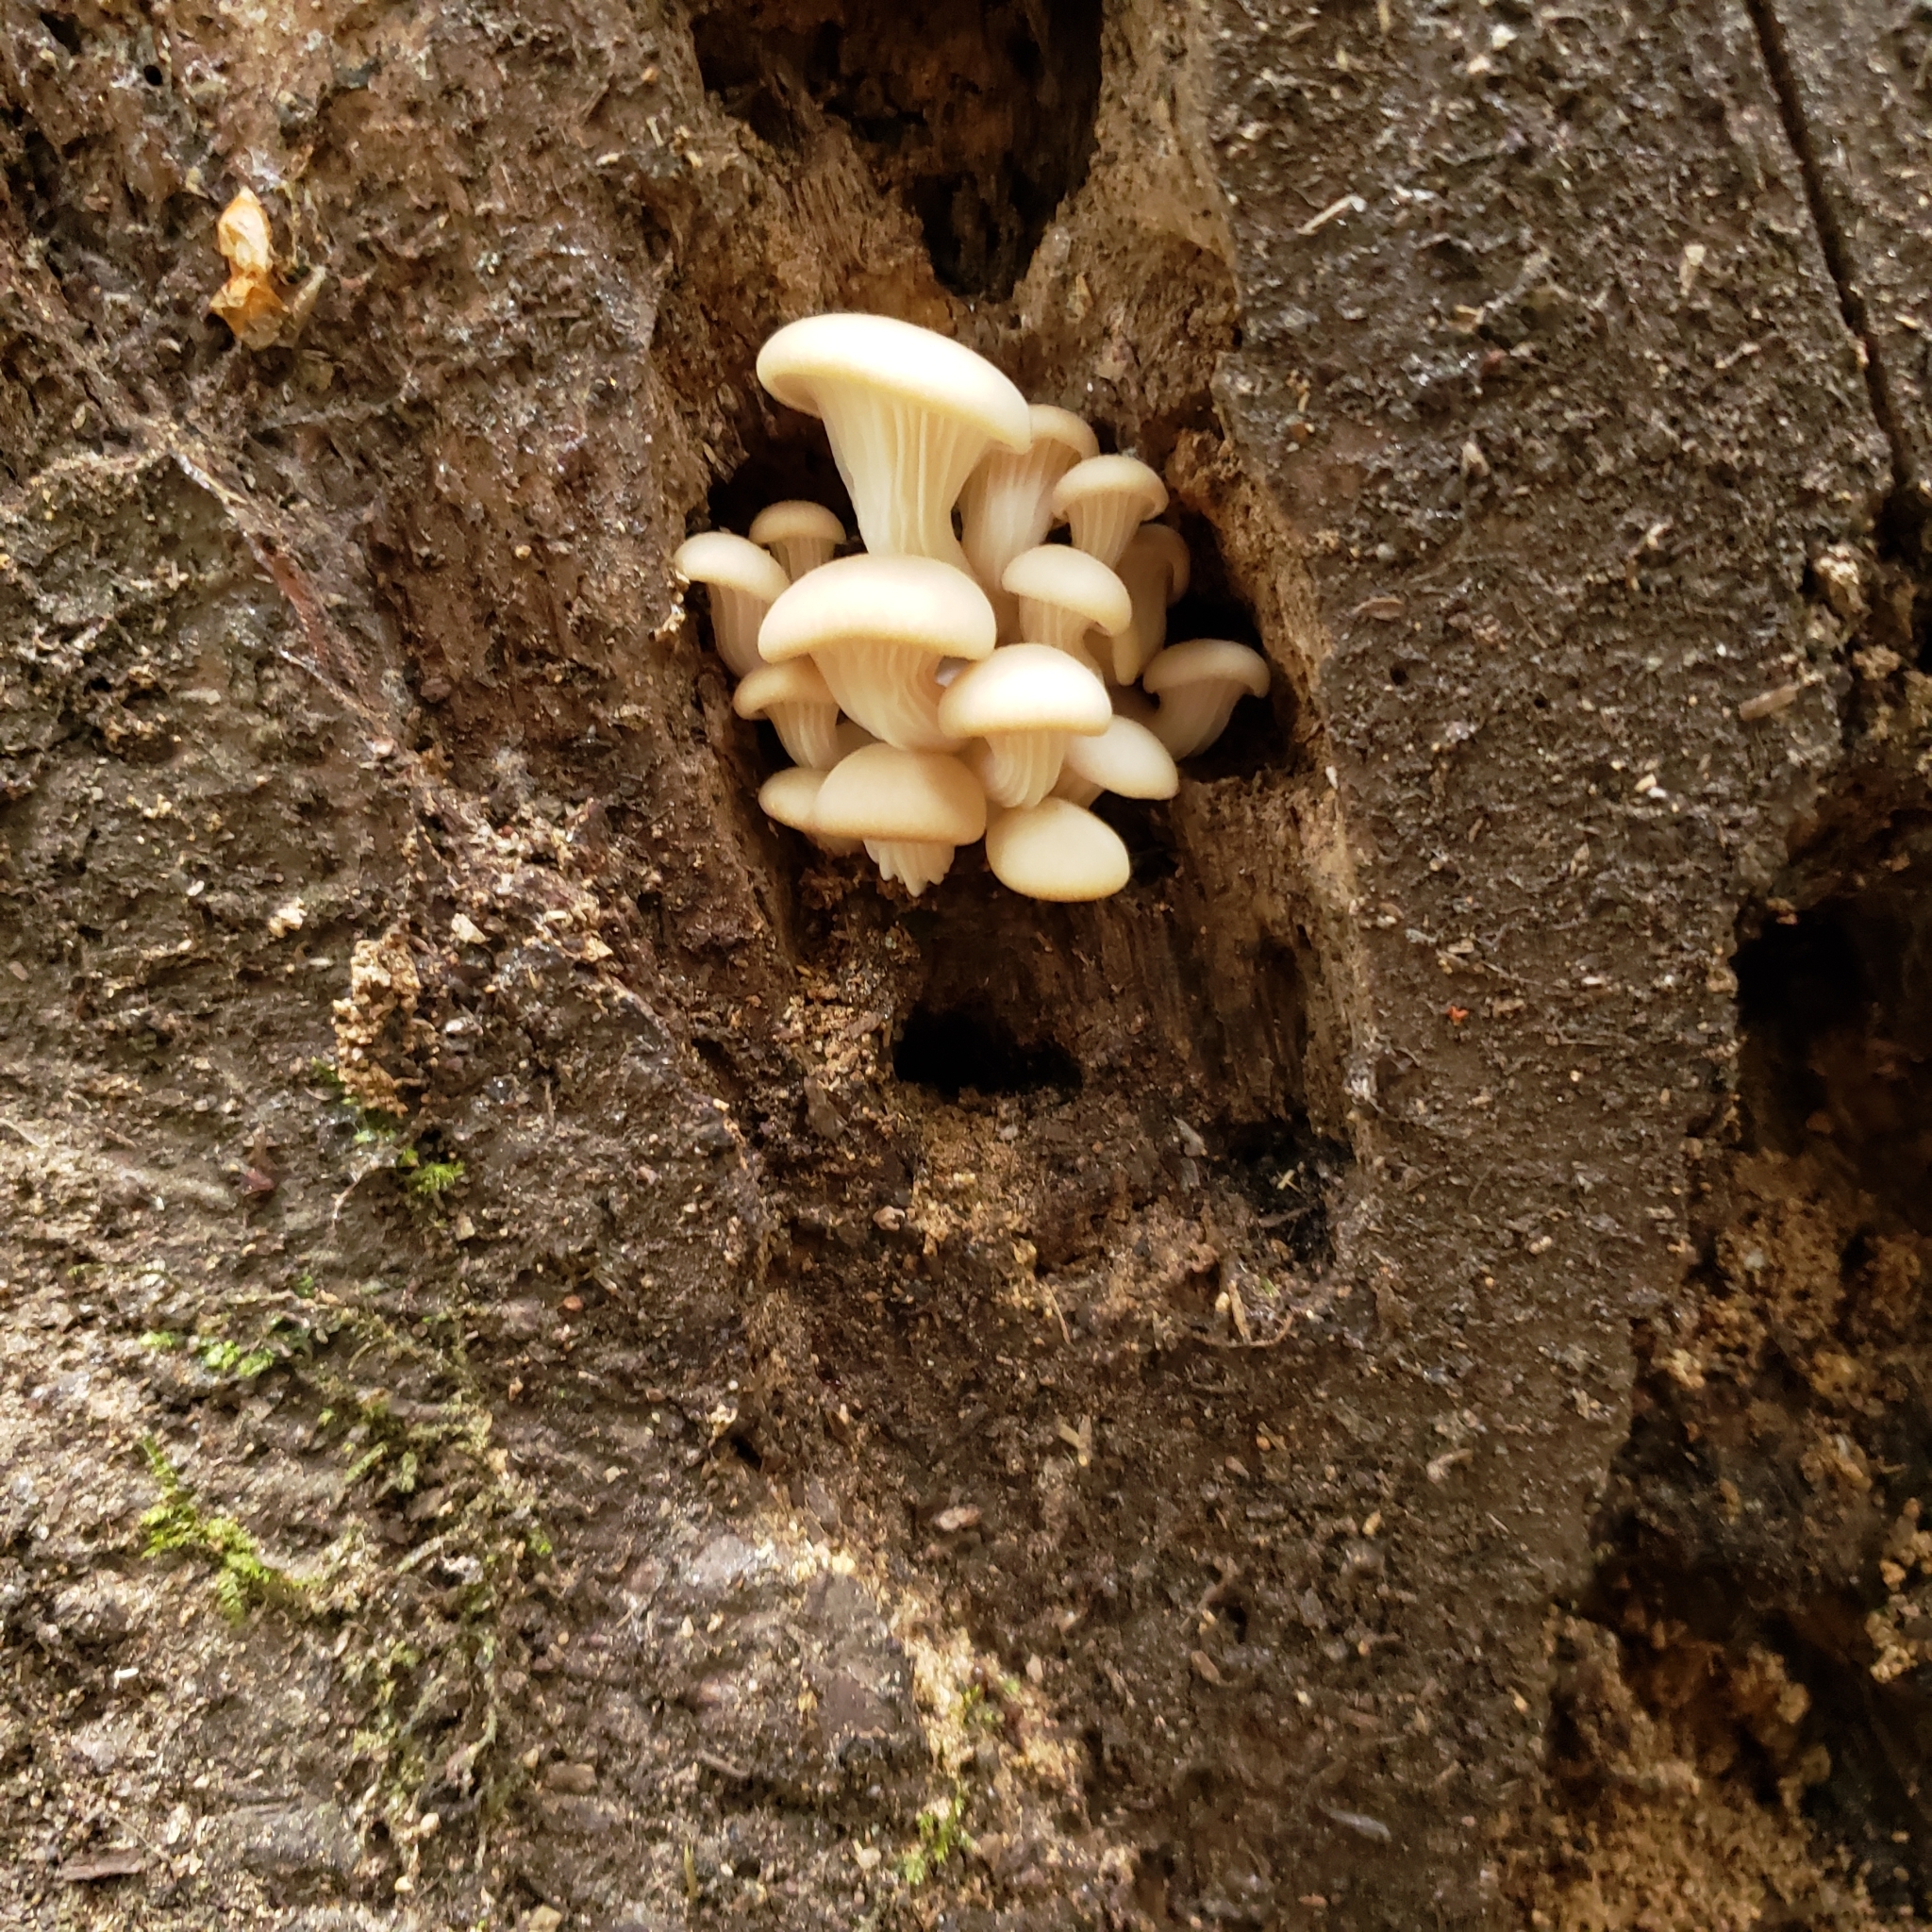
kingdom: Fungi
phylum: Basidiomycota
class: Agaricomycetes
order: Agaricales
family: Pleurotaceae
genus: Pleurotus
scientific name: Pleurotus pulmonarius
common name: Pale oyster
